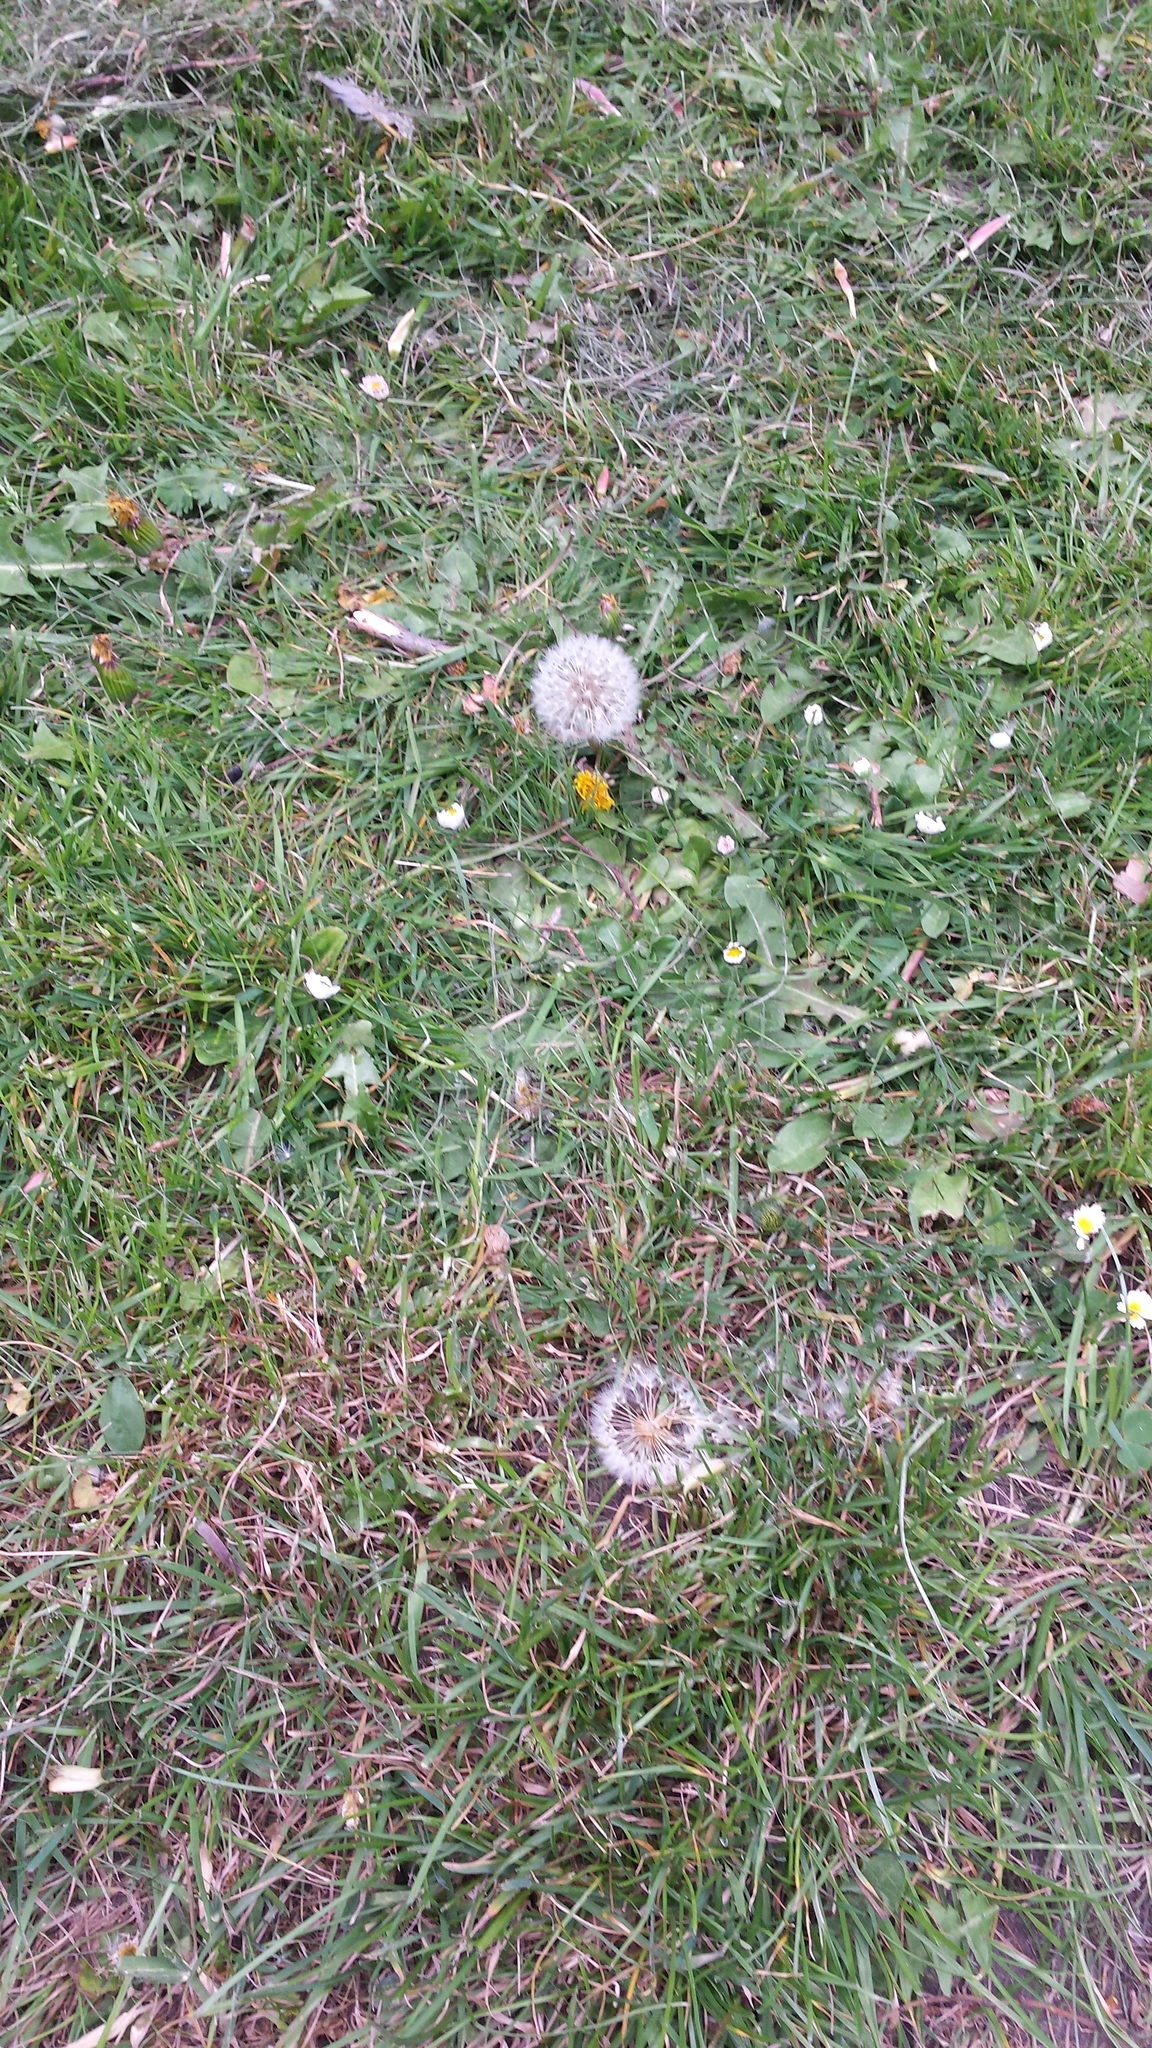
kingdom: Plantae
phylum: Tracheophyta
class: Magnoliopsida
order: Asterales
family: Asteraceae
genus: Taraxacum
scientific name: Taraxacum officinale
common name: Common dandelion
